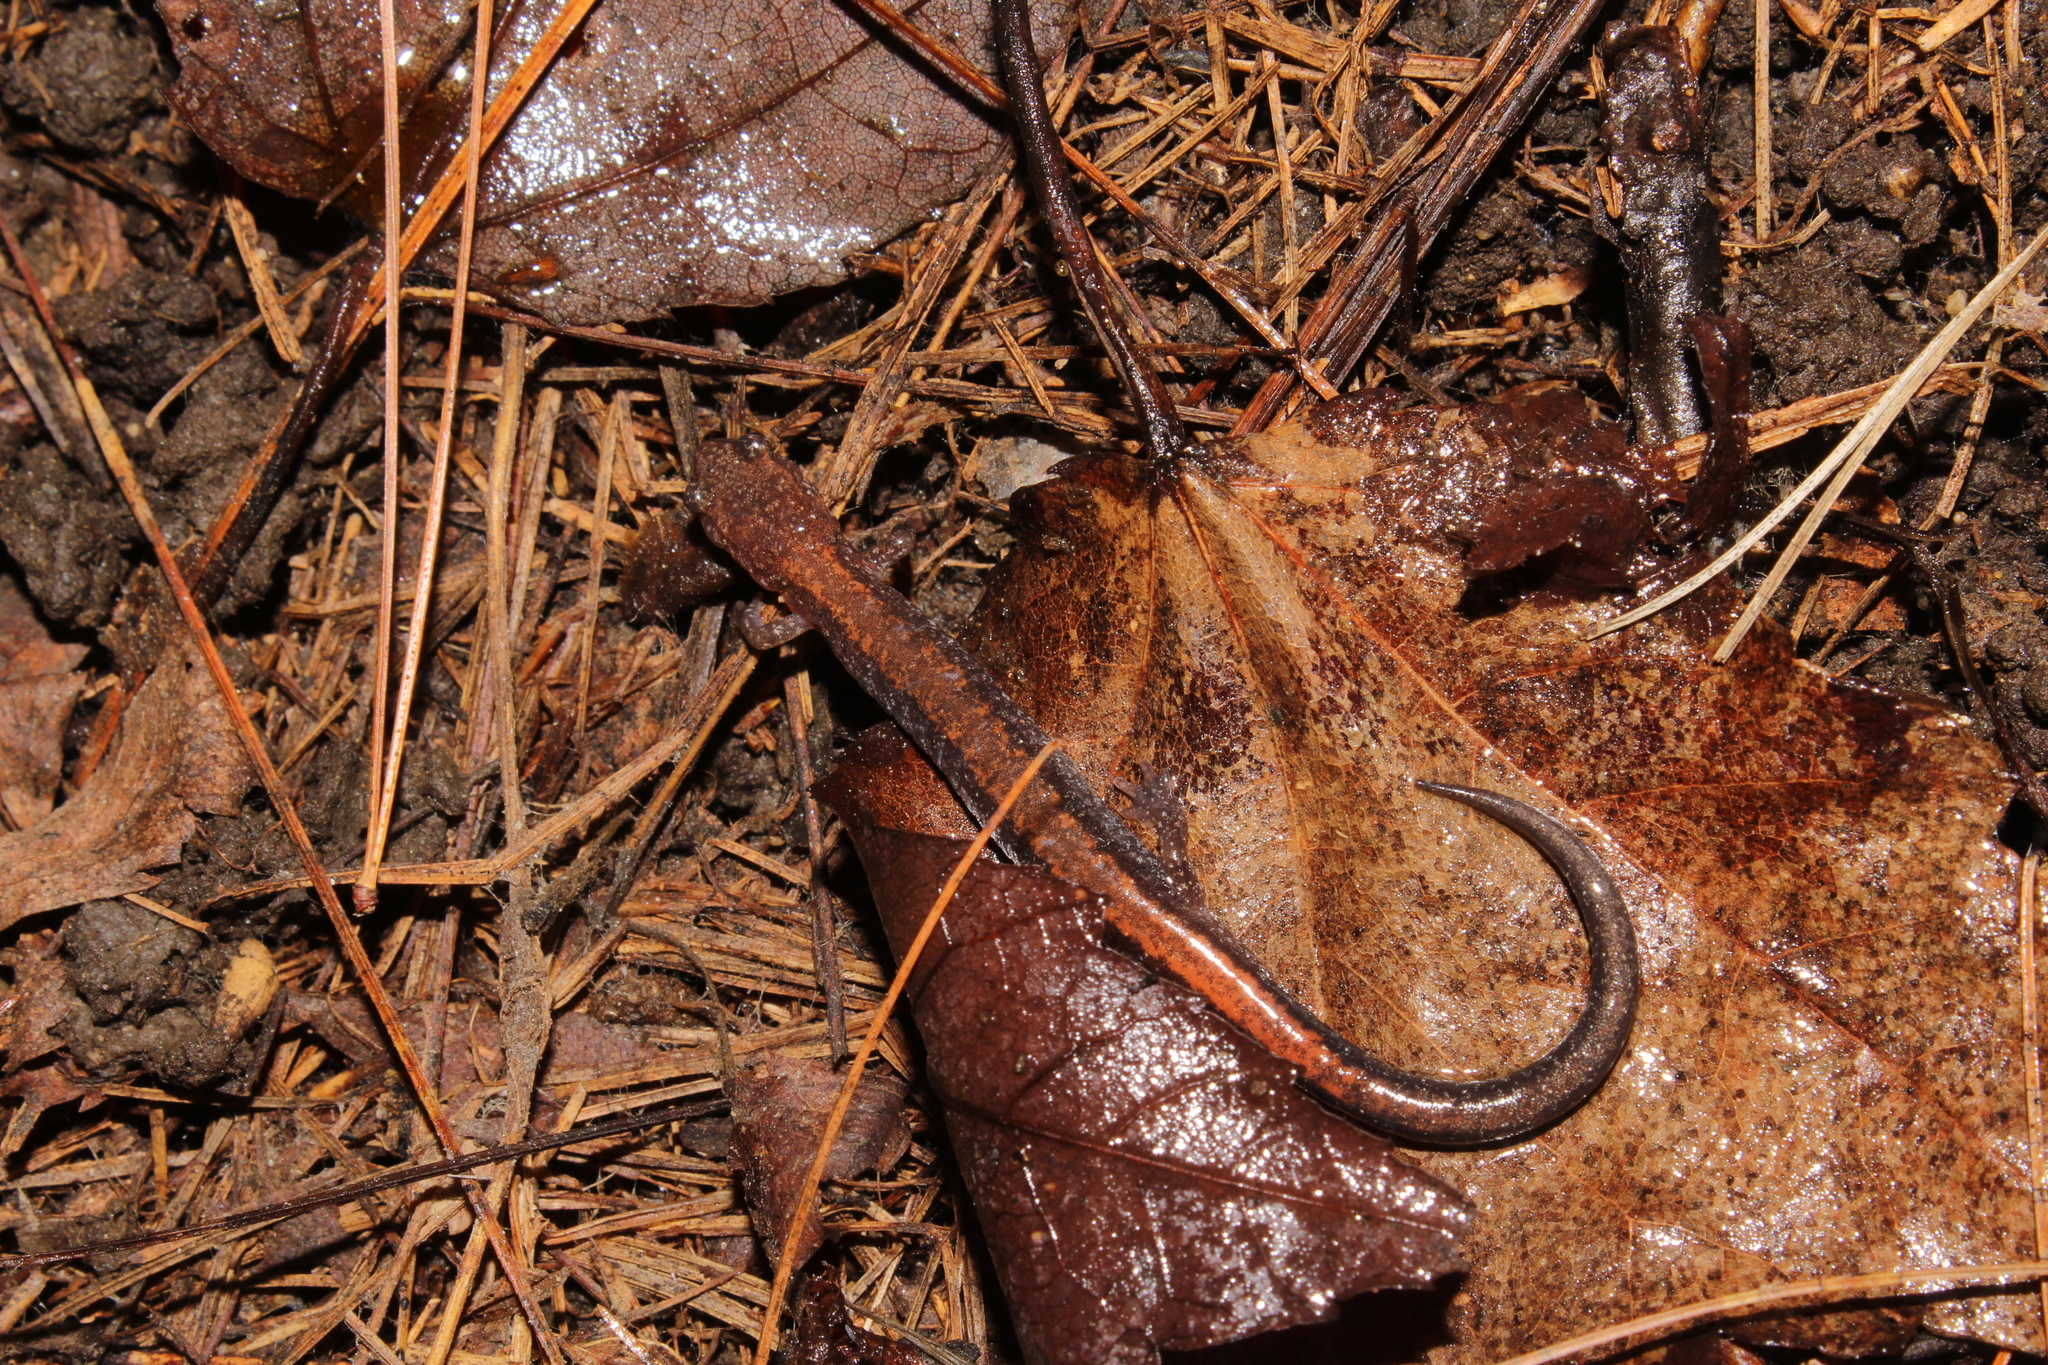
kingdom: Animalia
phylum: Chordata
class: Amphibia
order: Caudata
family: Plethodontidae
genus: Plethodon
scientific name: Plethodon cinereus
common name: Redback salamander
